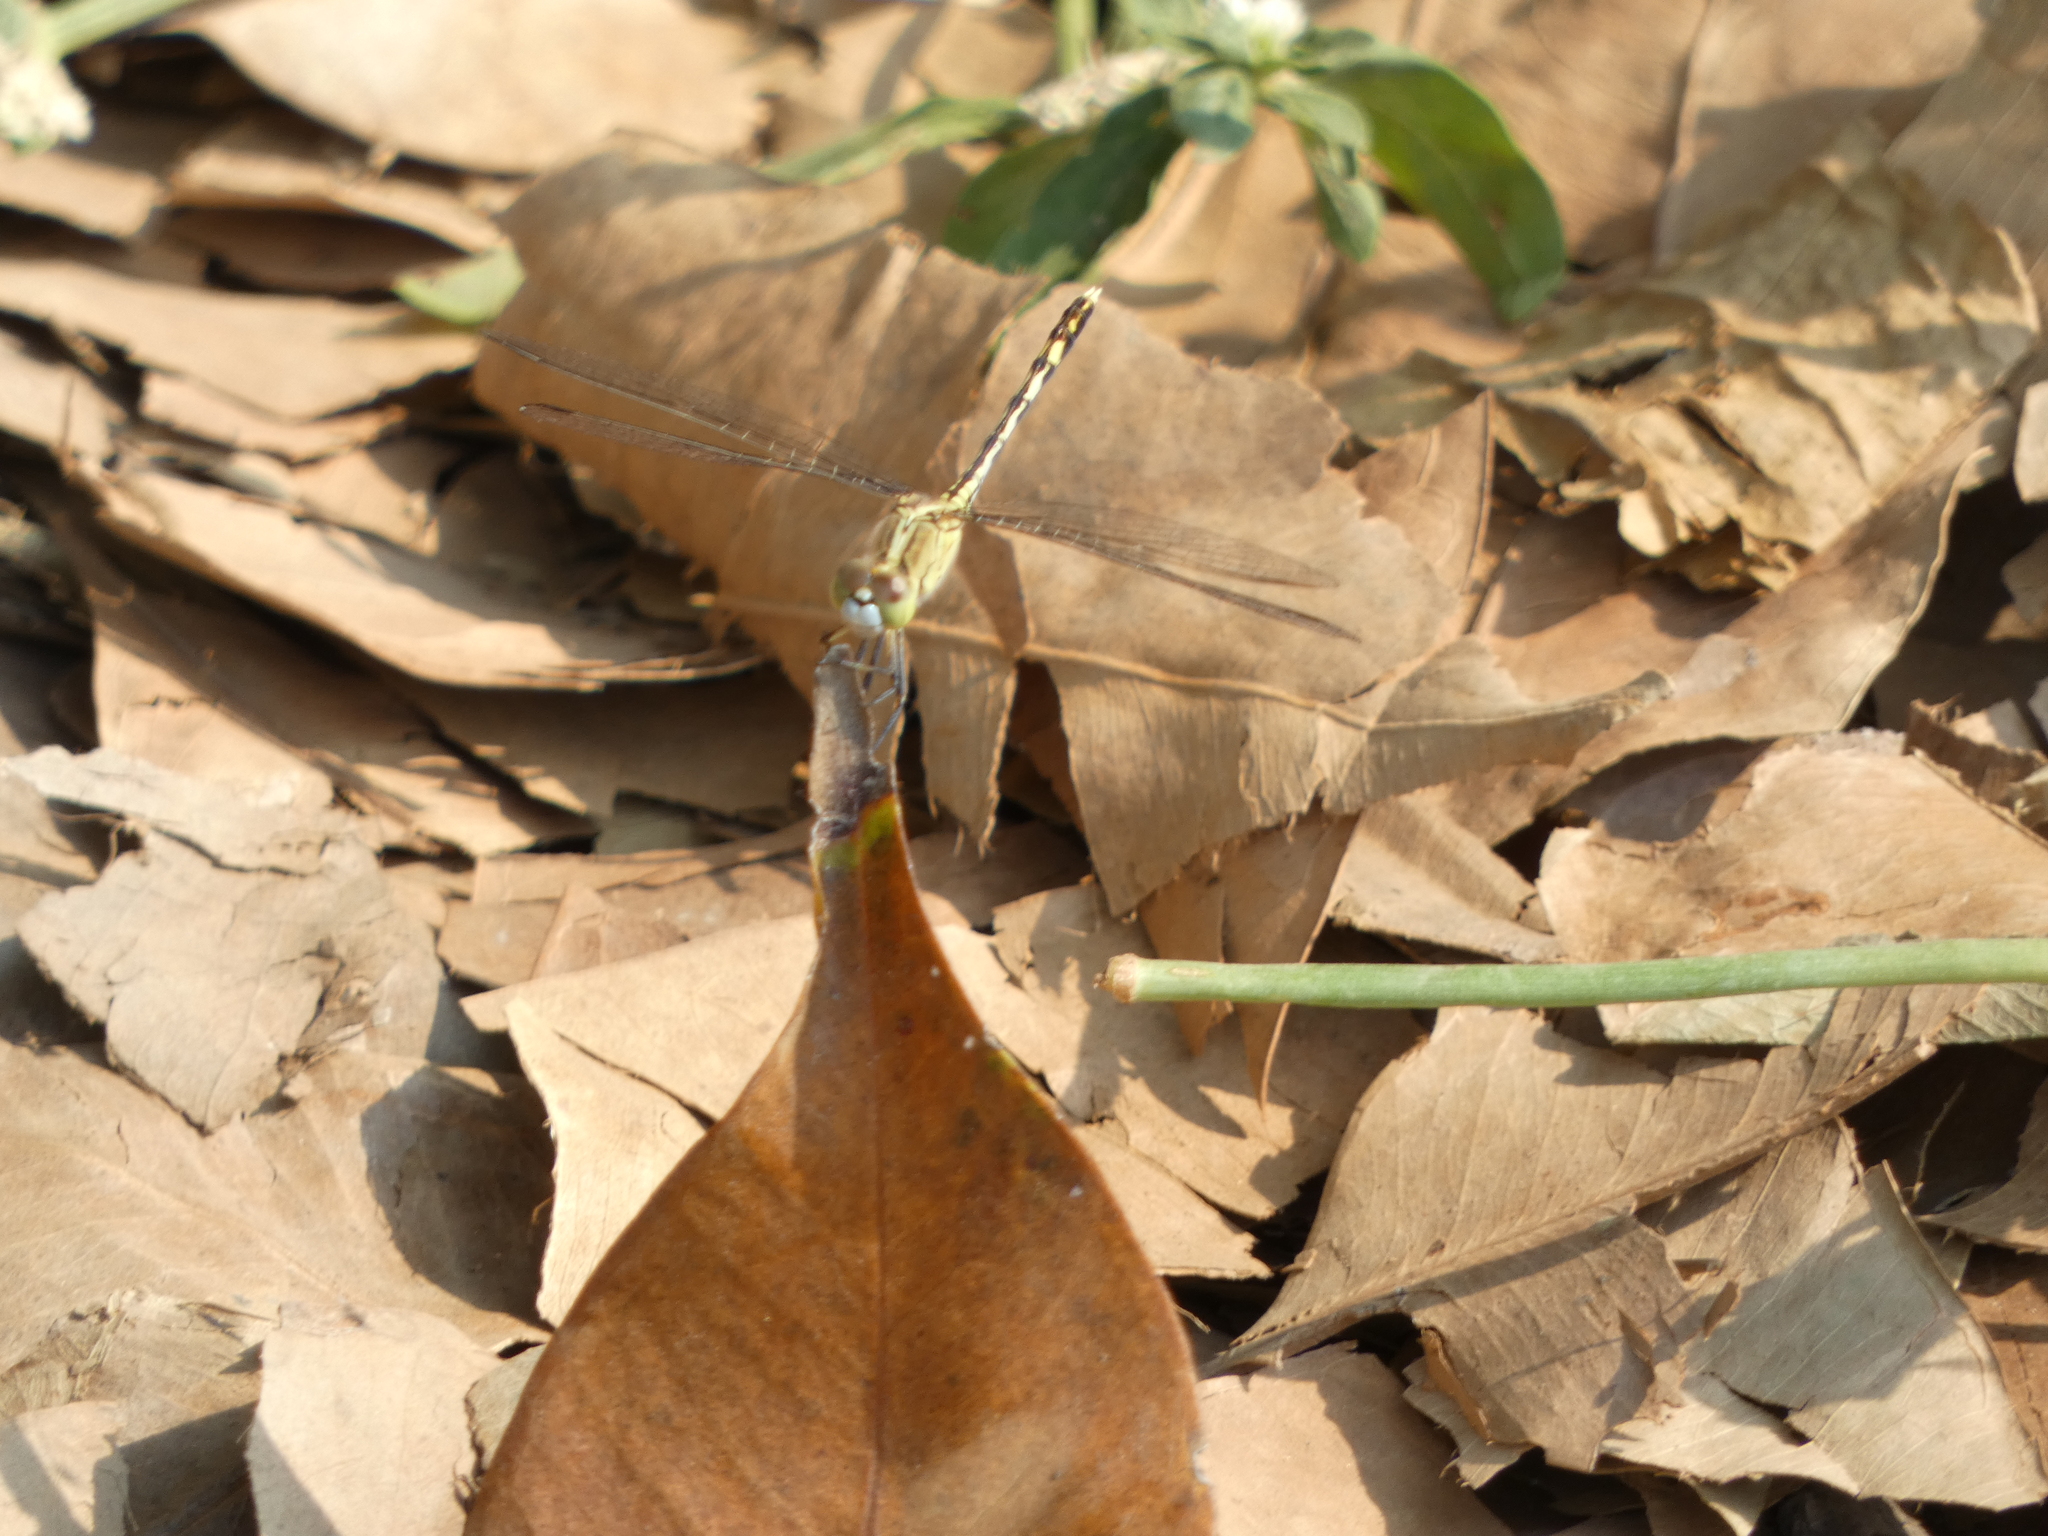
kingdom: Animalia
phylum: Arthropoda
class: Insecta
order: Odonata
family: Libellulidae
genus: Diplacodes
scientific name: Diplacodes trivialis
